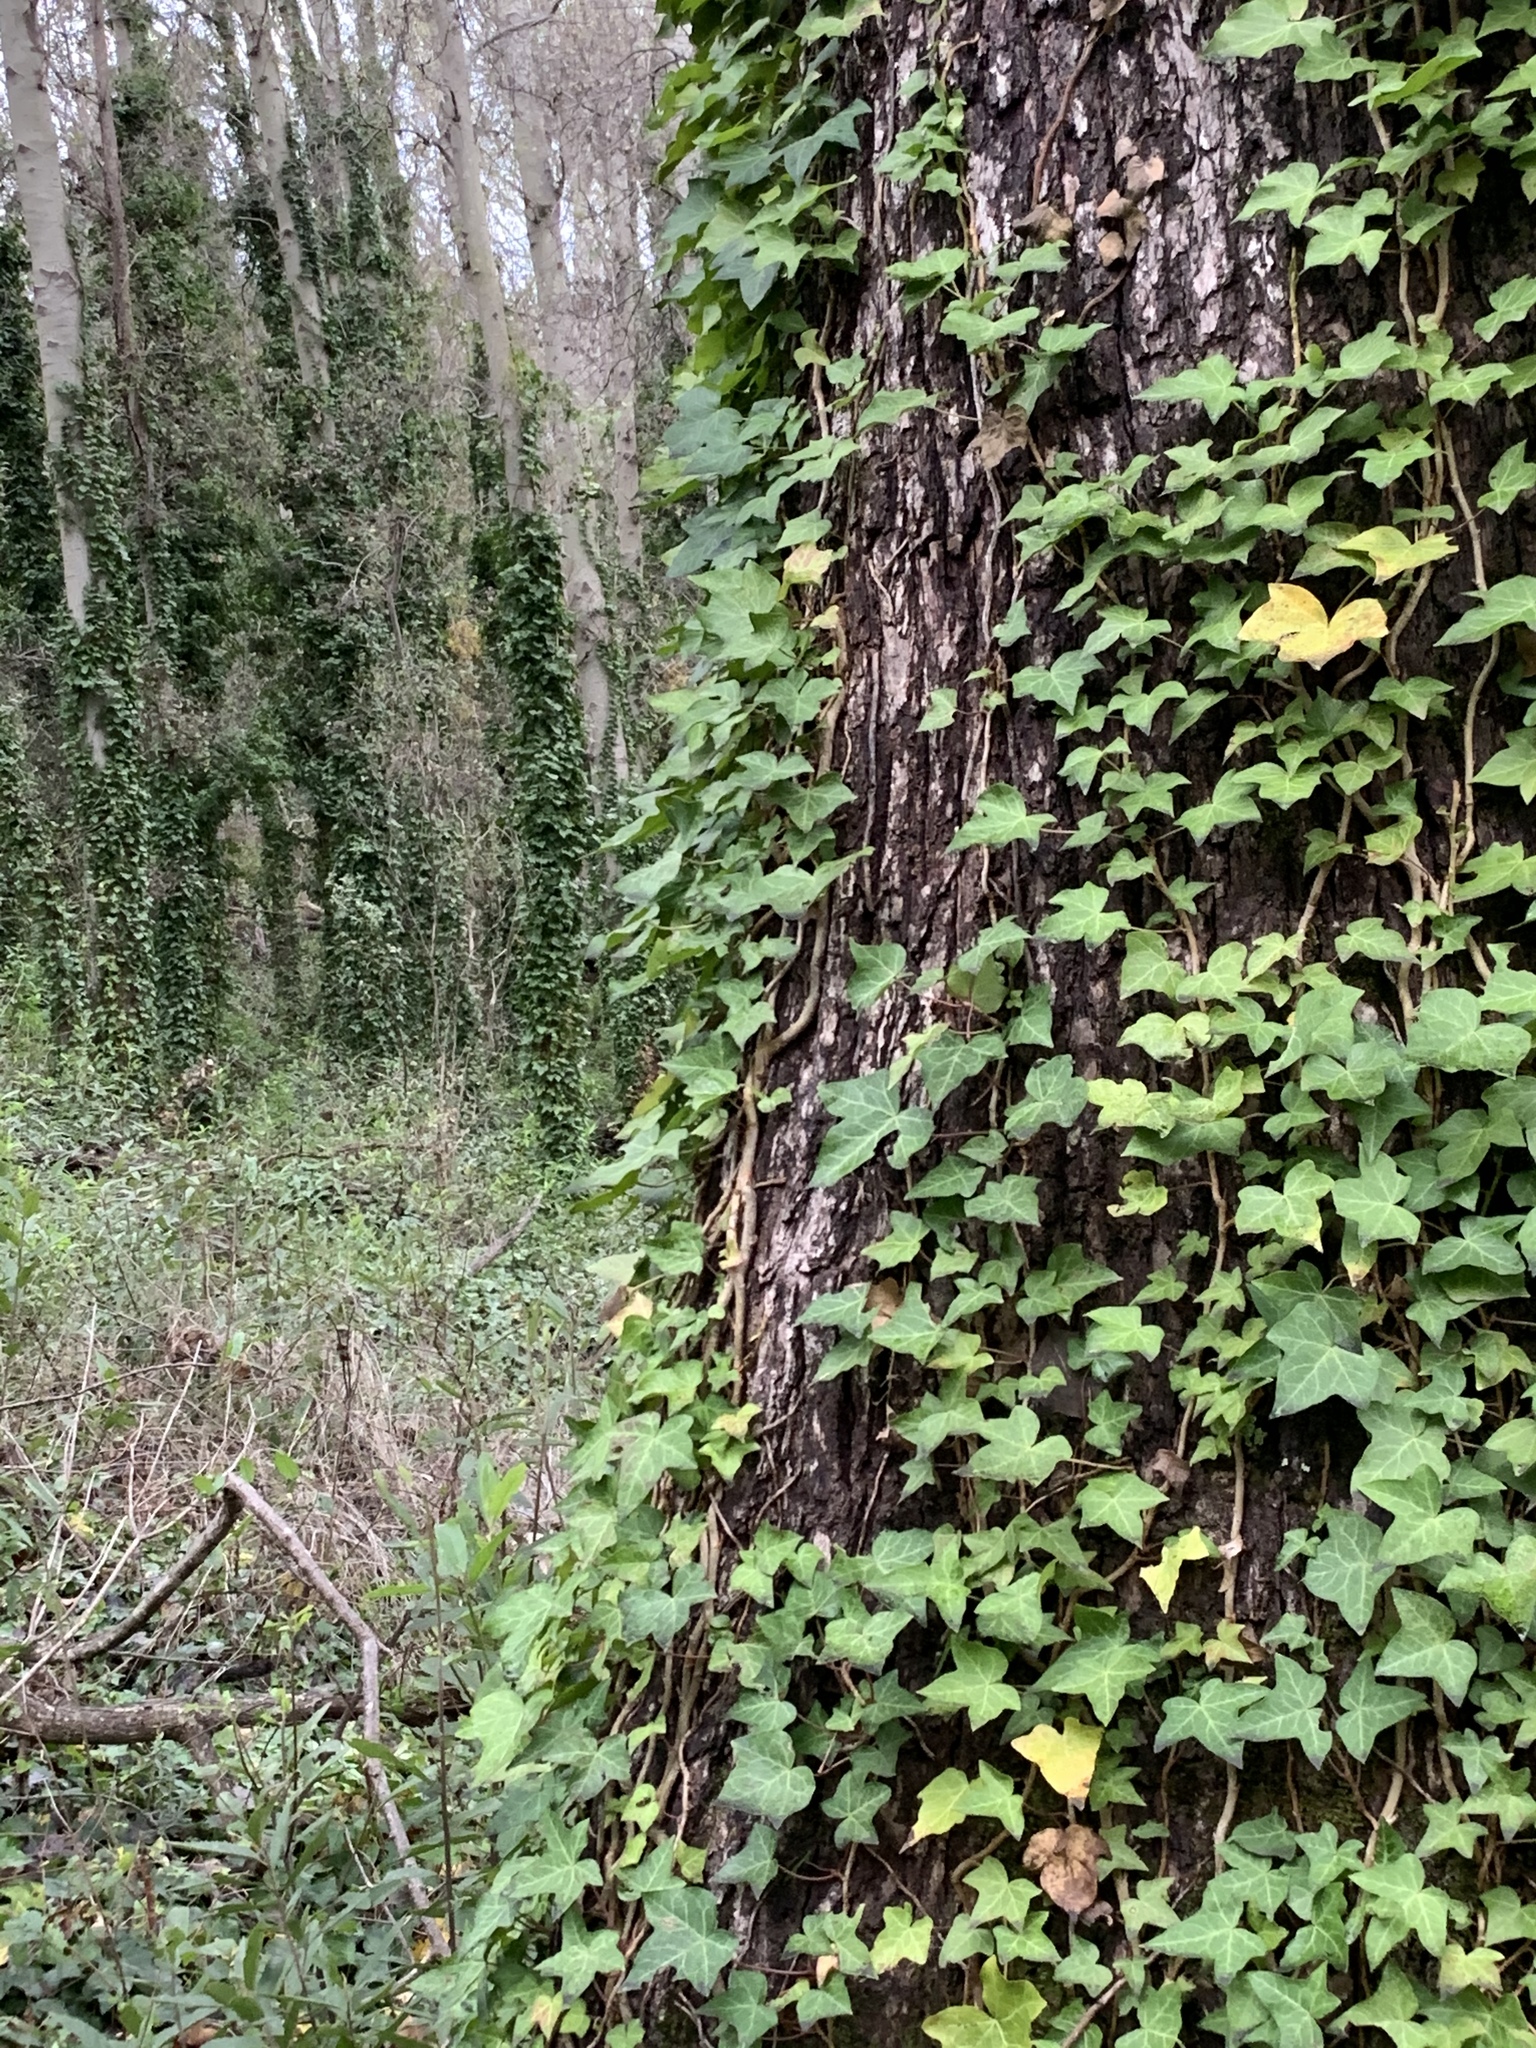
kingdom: Plantae
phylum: Tracheophyta
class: Magnoliopsida
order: Apiales
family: Araliaceae
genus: Hedera
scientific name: Hedera helix
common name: Ivy
